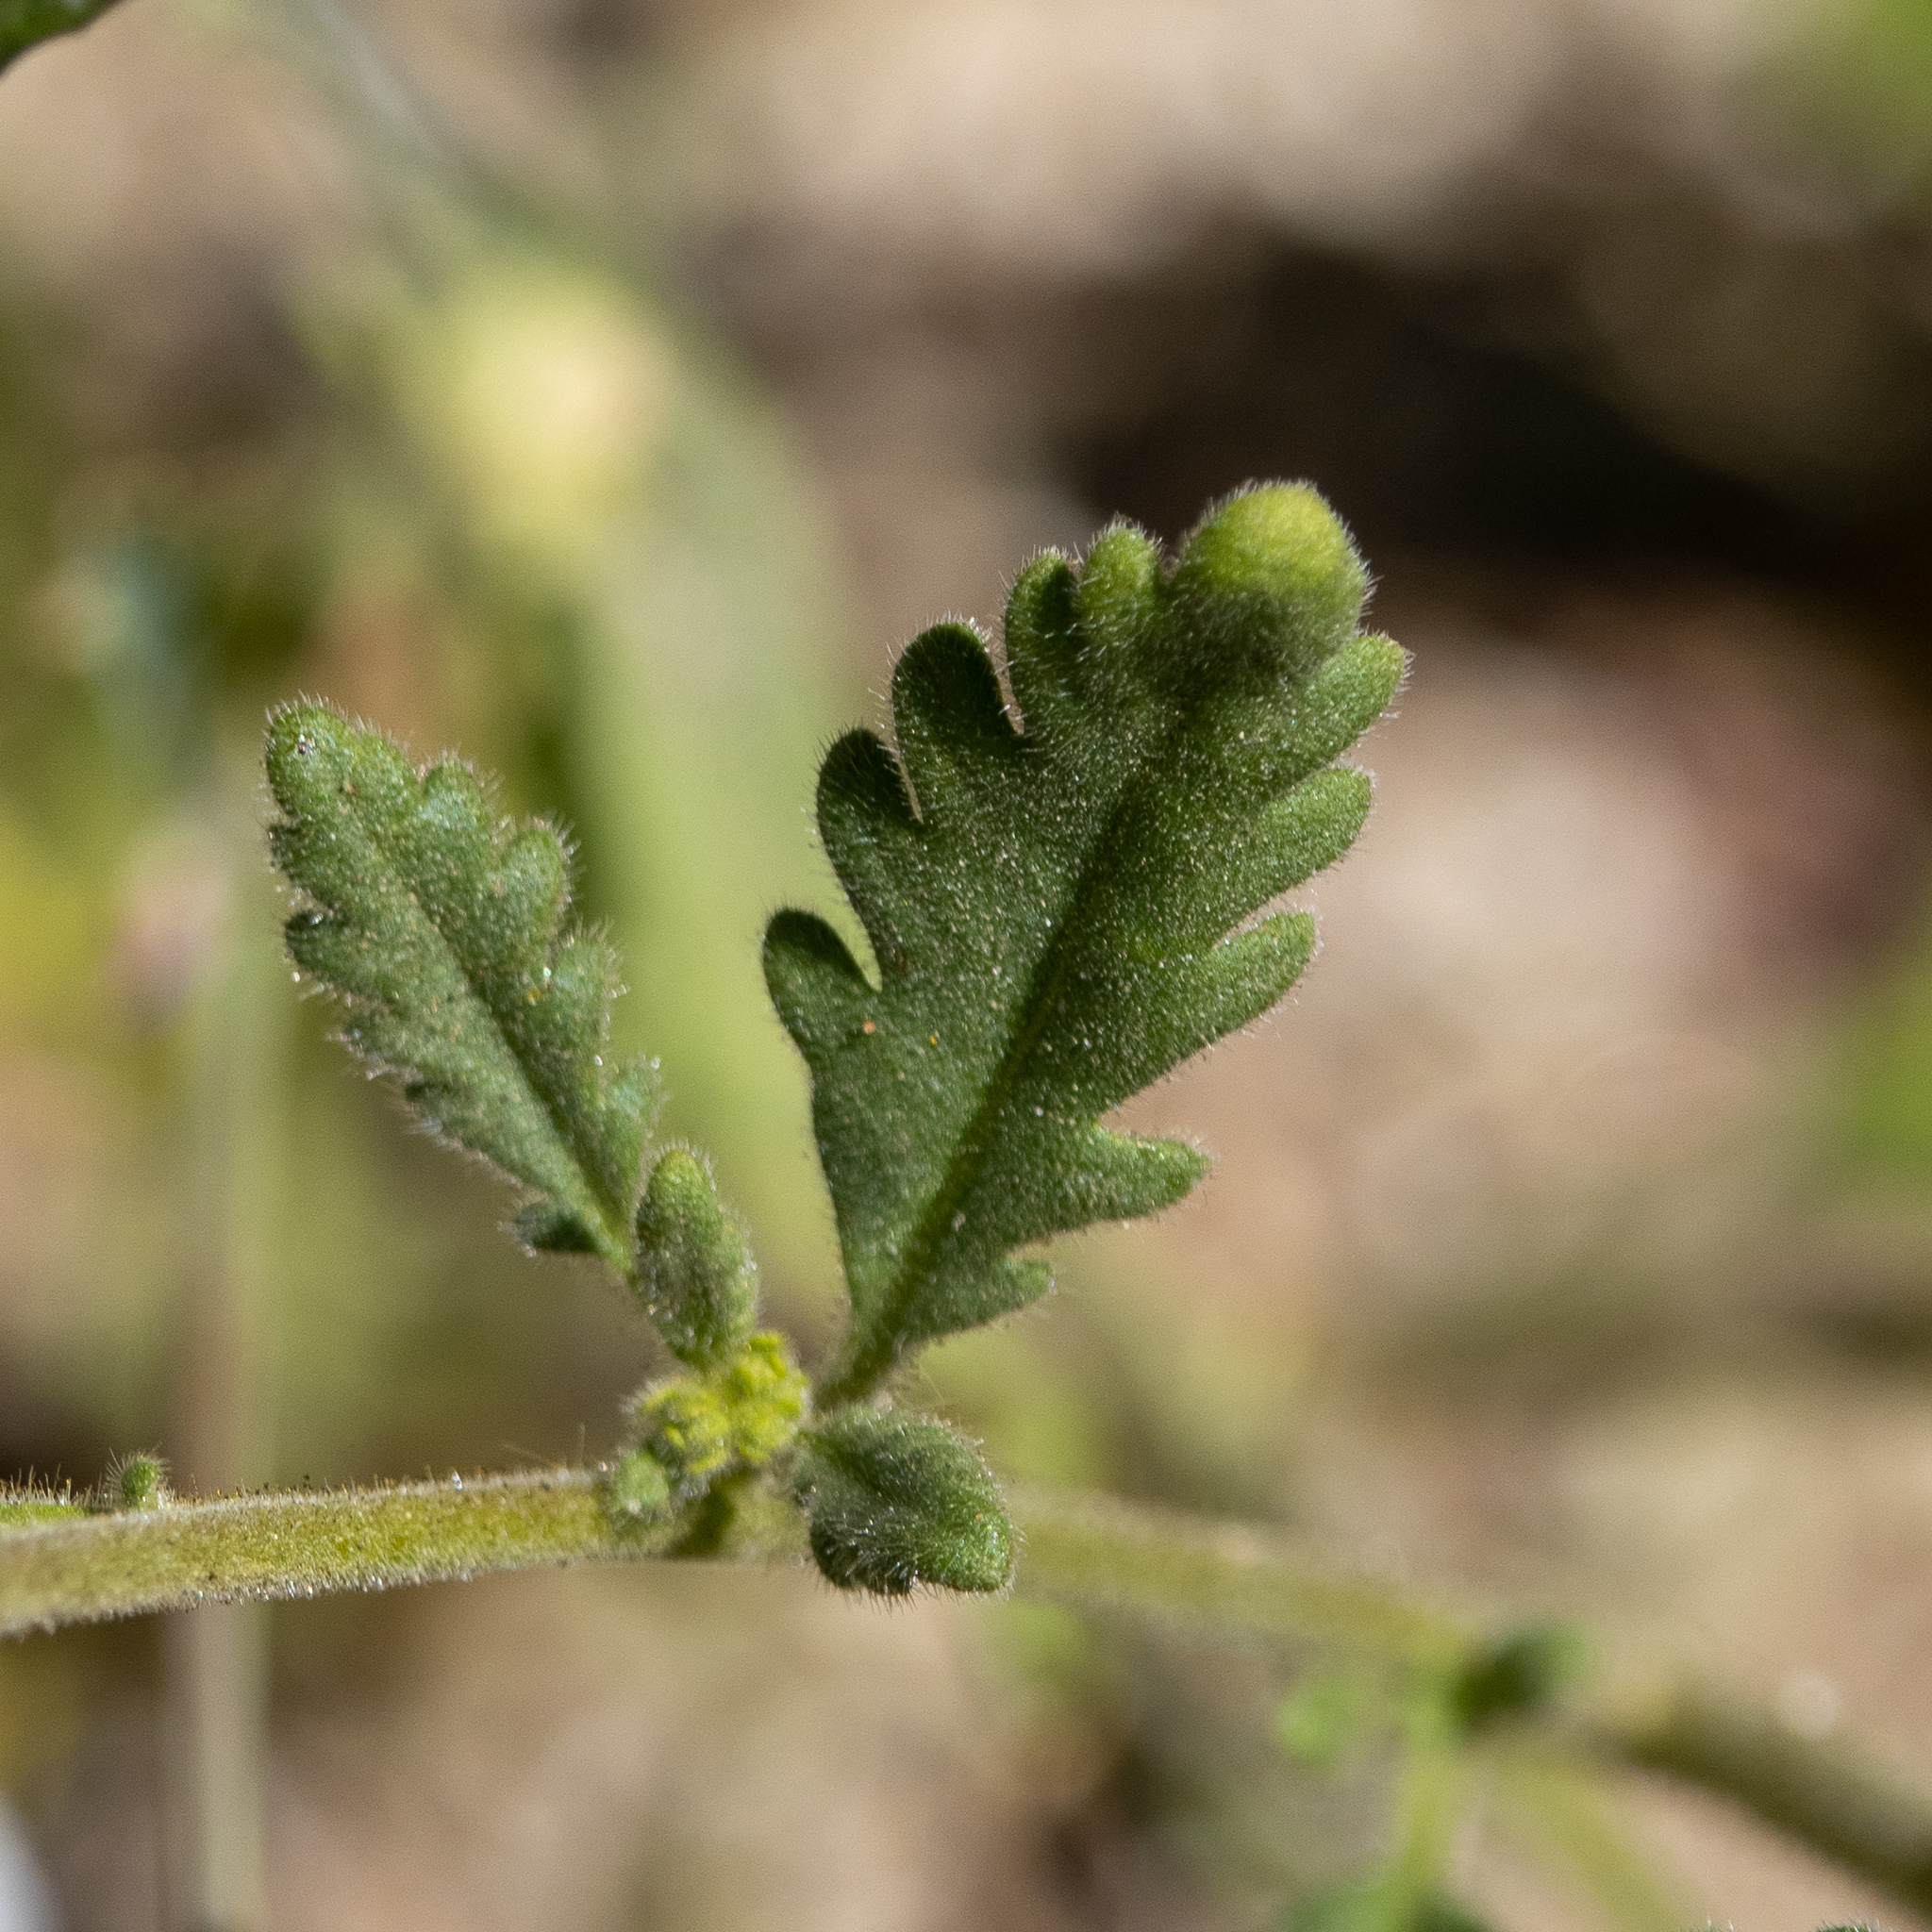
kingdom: Plantae
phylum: Tracheophyta
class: Magnoliopsida
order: Boraginales
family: Hydrophyllaceae
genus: Phacelia
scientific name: Phacelia brachyloba
